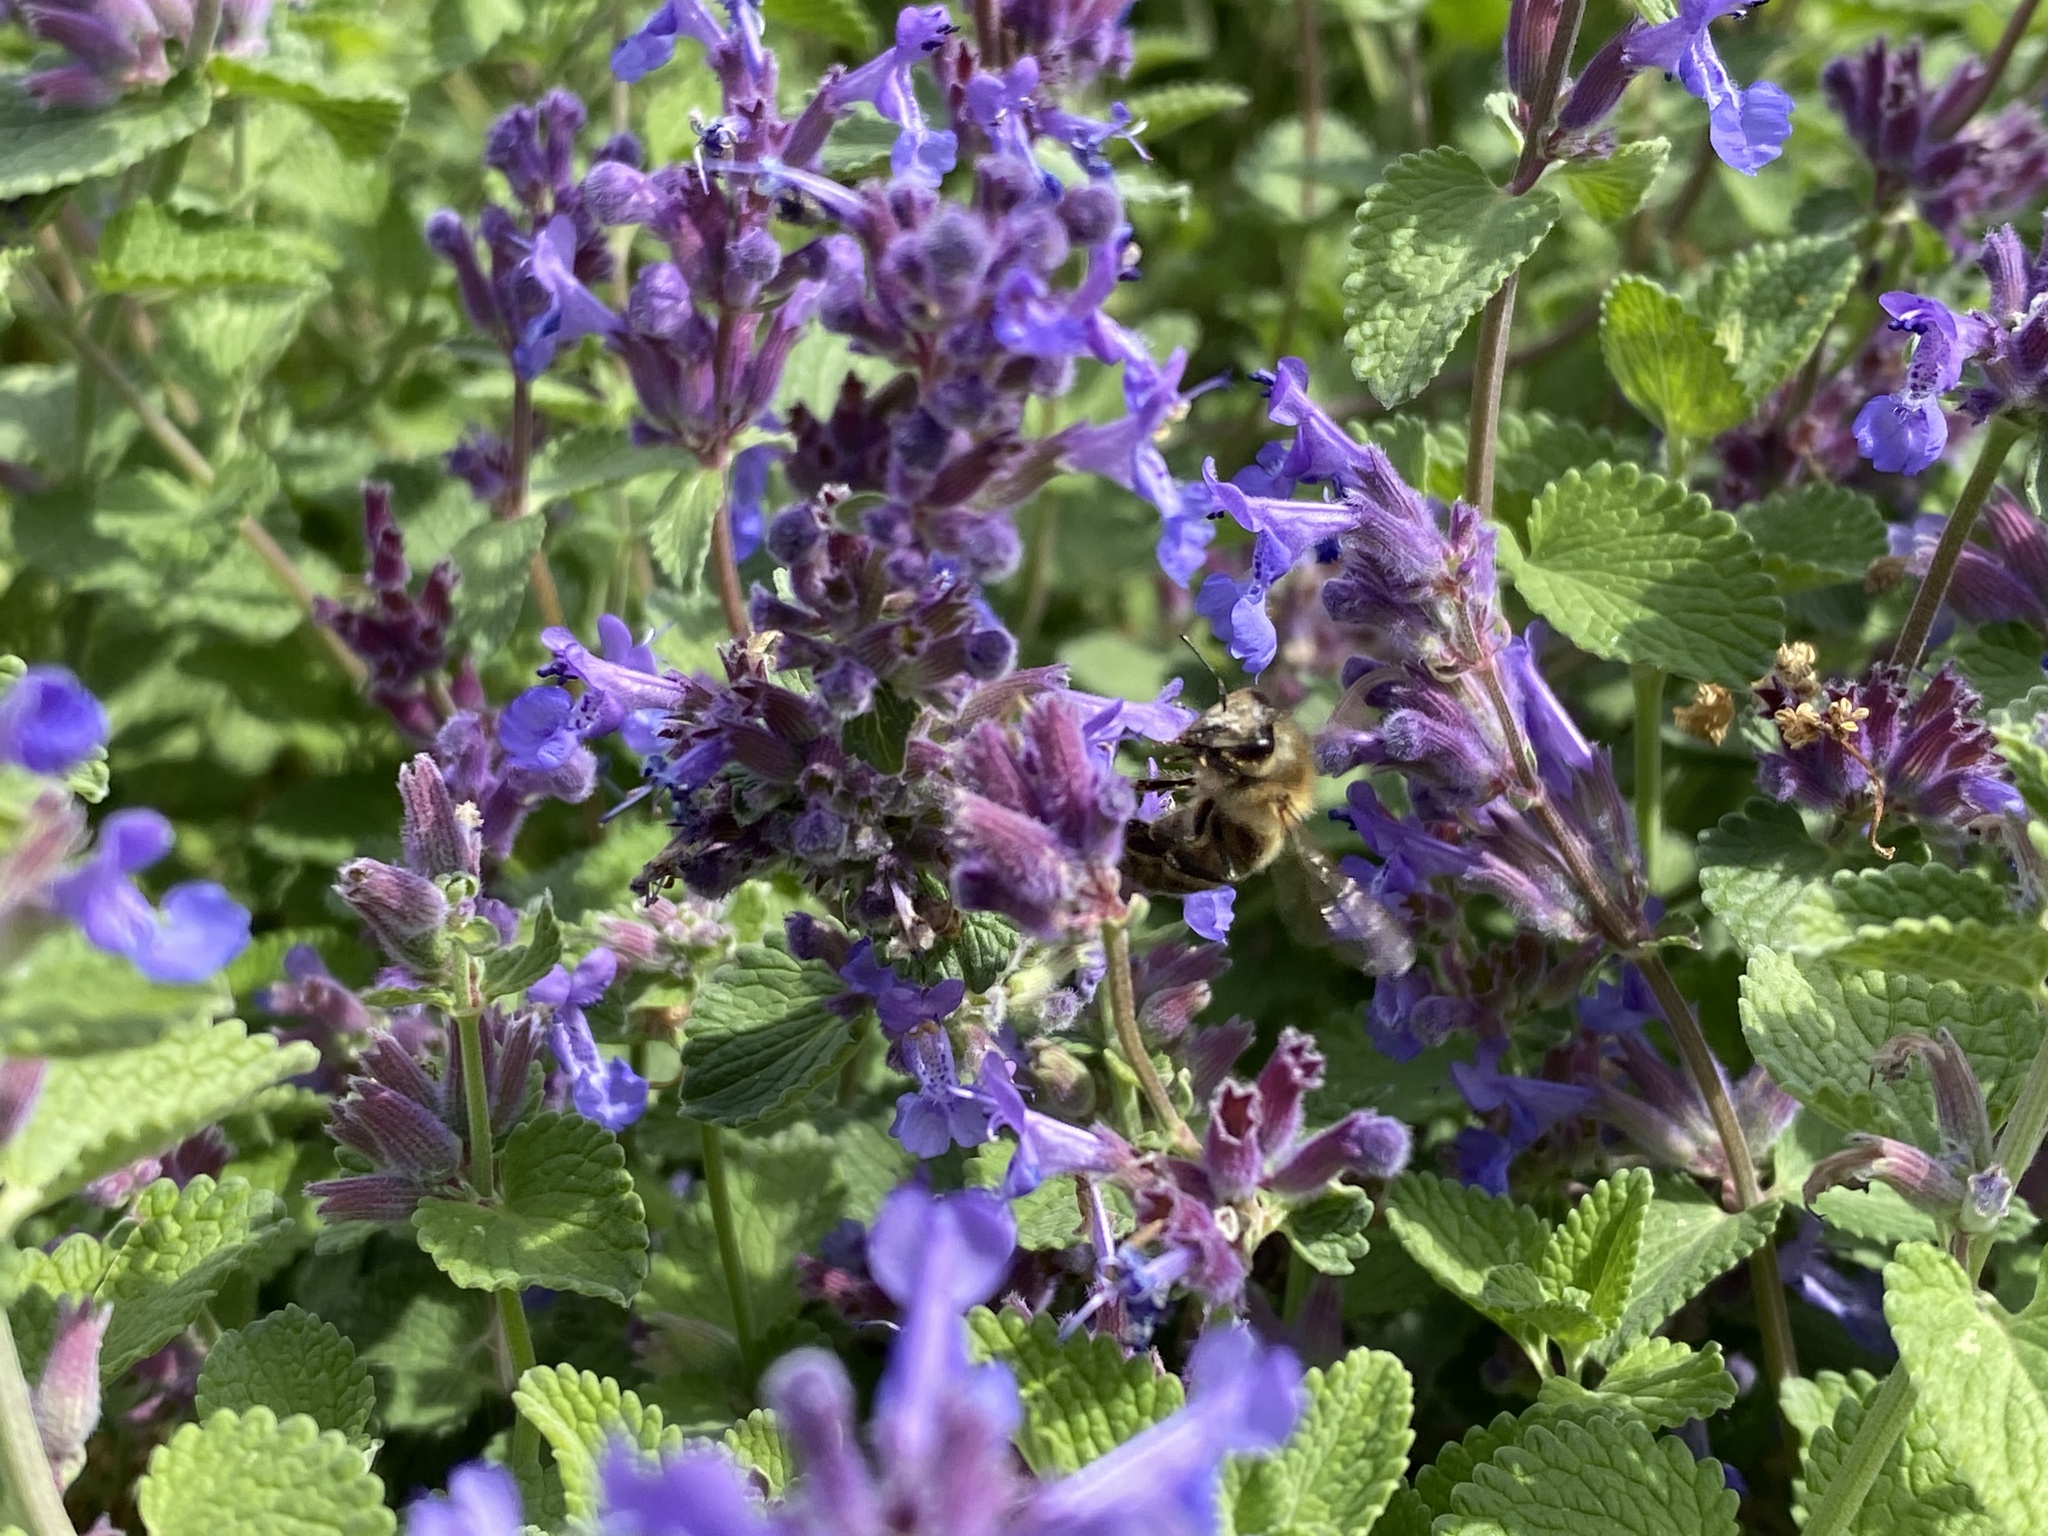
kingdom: Animalia
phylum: Arthropoda
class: Insecta
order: Hymenoptera
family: Apidae
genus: Apis
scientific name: Apis mellifera
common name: Honey bee
